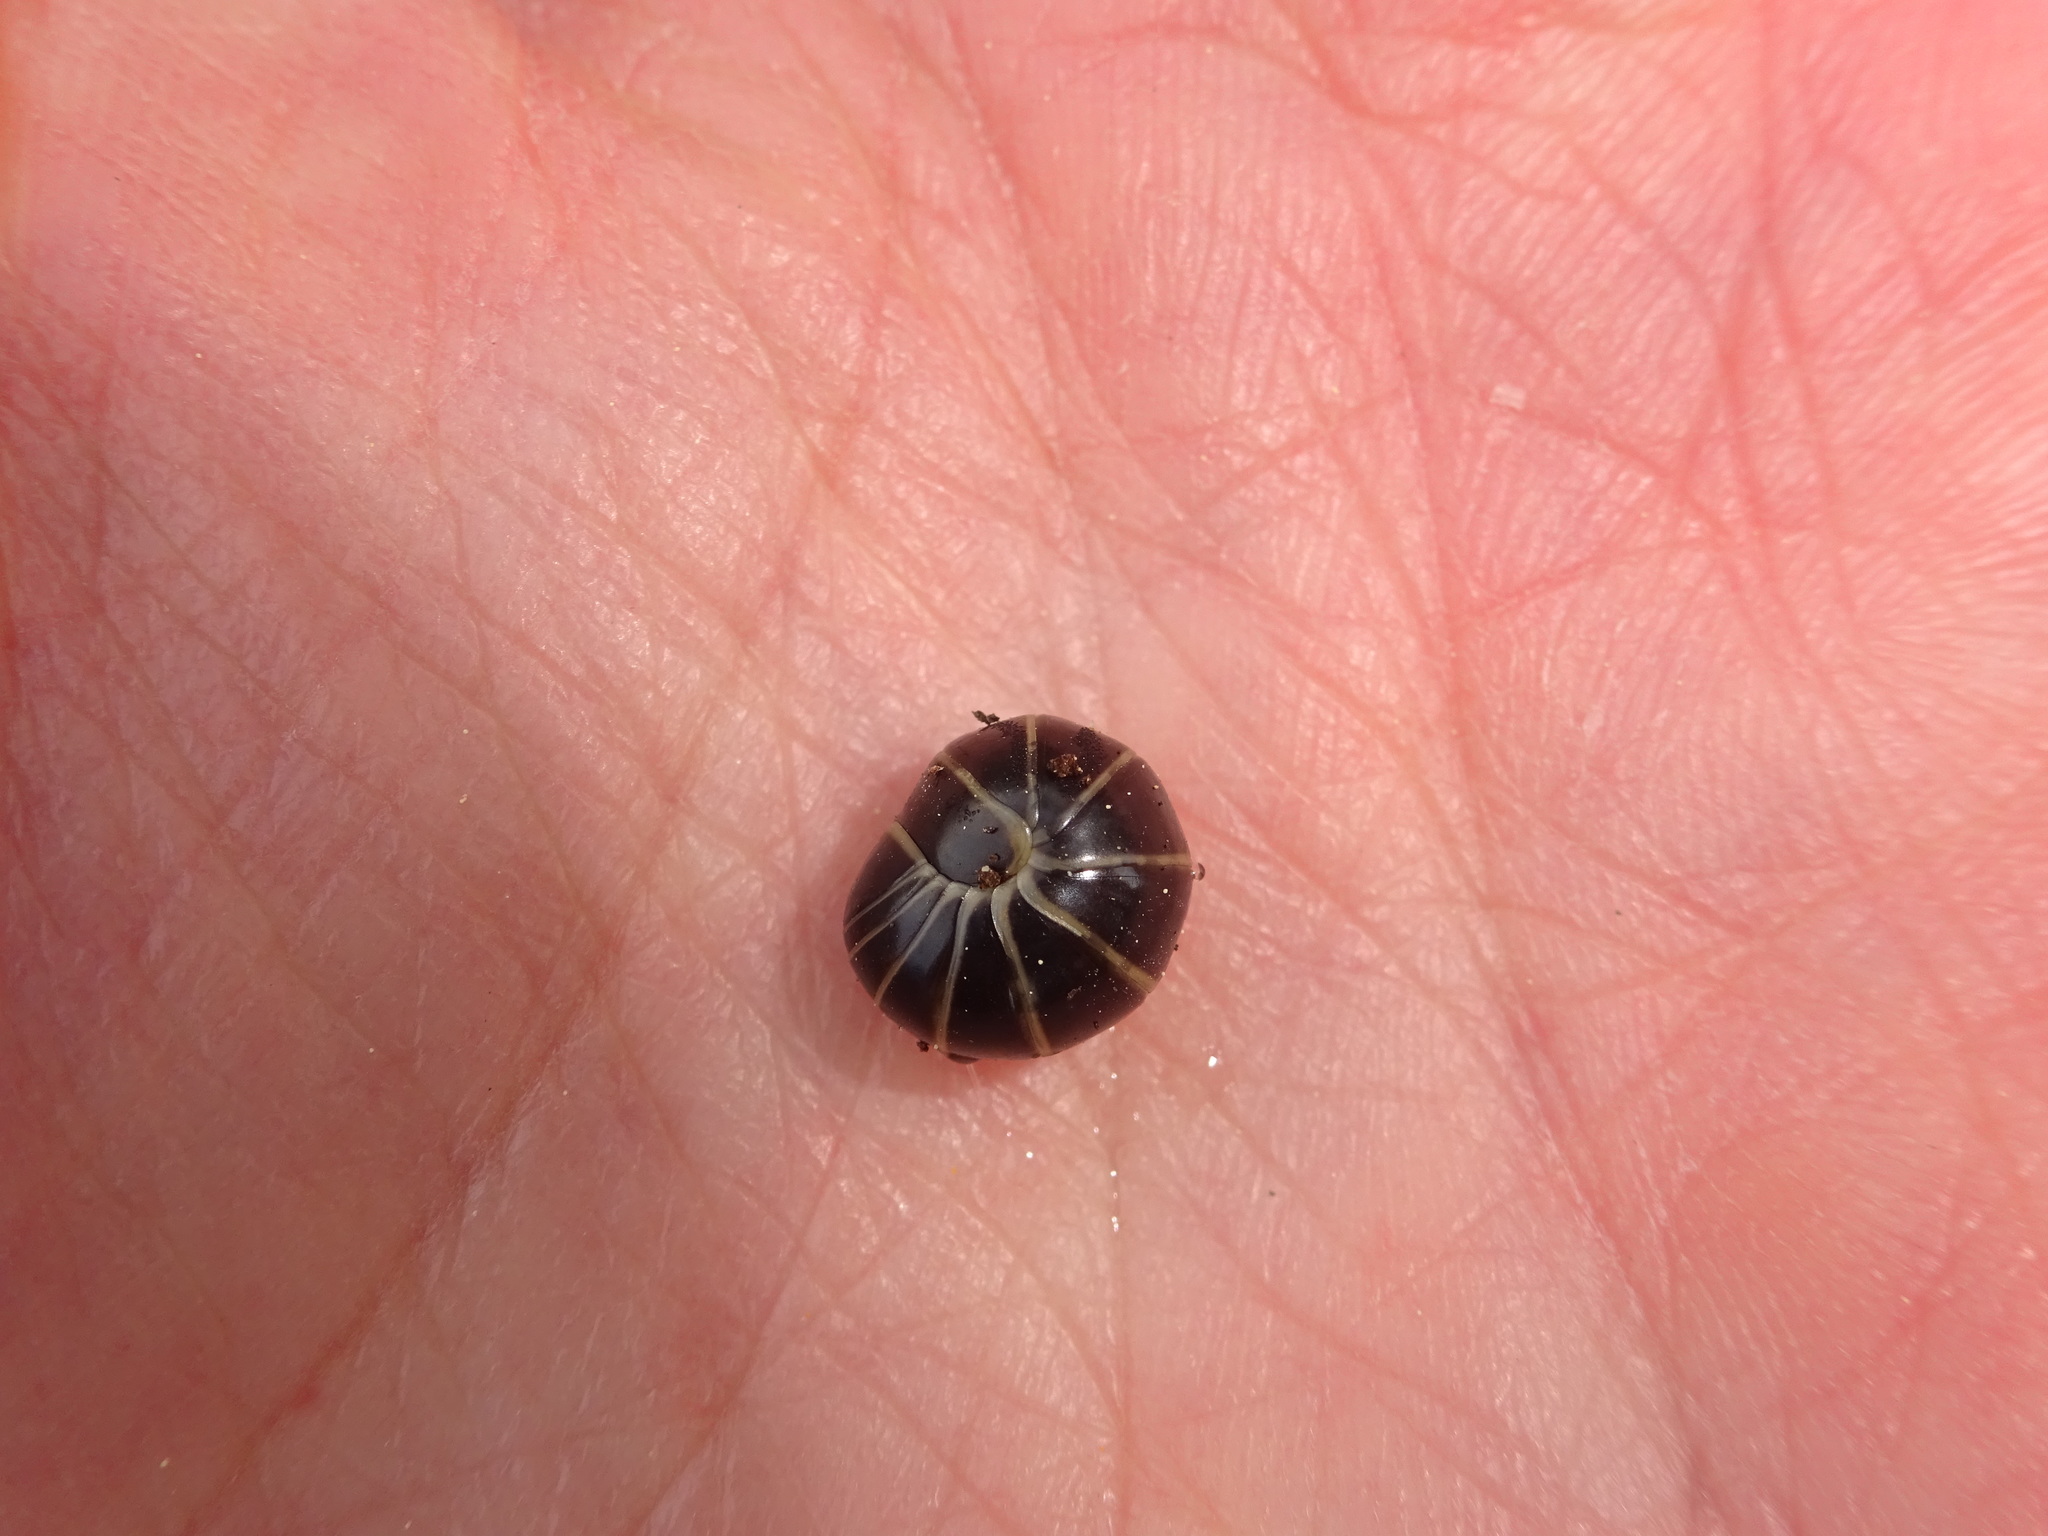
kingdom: Animalia
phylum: Arthropoda
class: Diplopoda
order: Glomerida
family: Glomeridae
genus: Glomeris
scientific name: Glomeris marginata
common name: Bordered pill millipede
